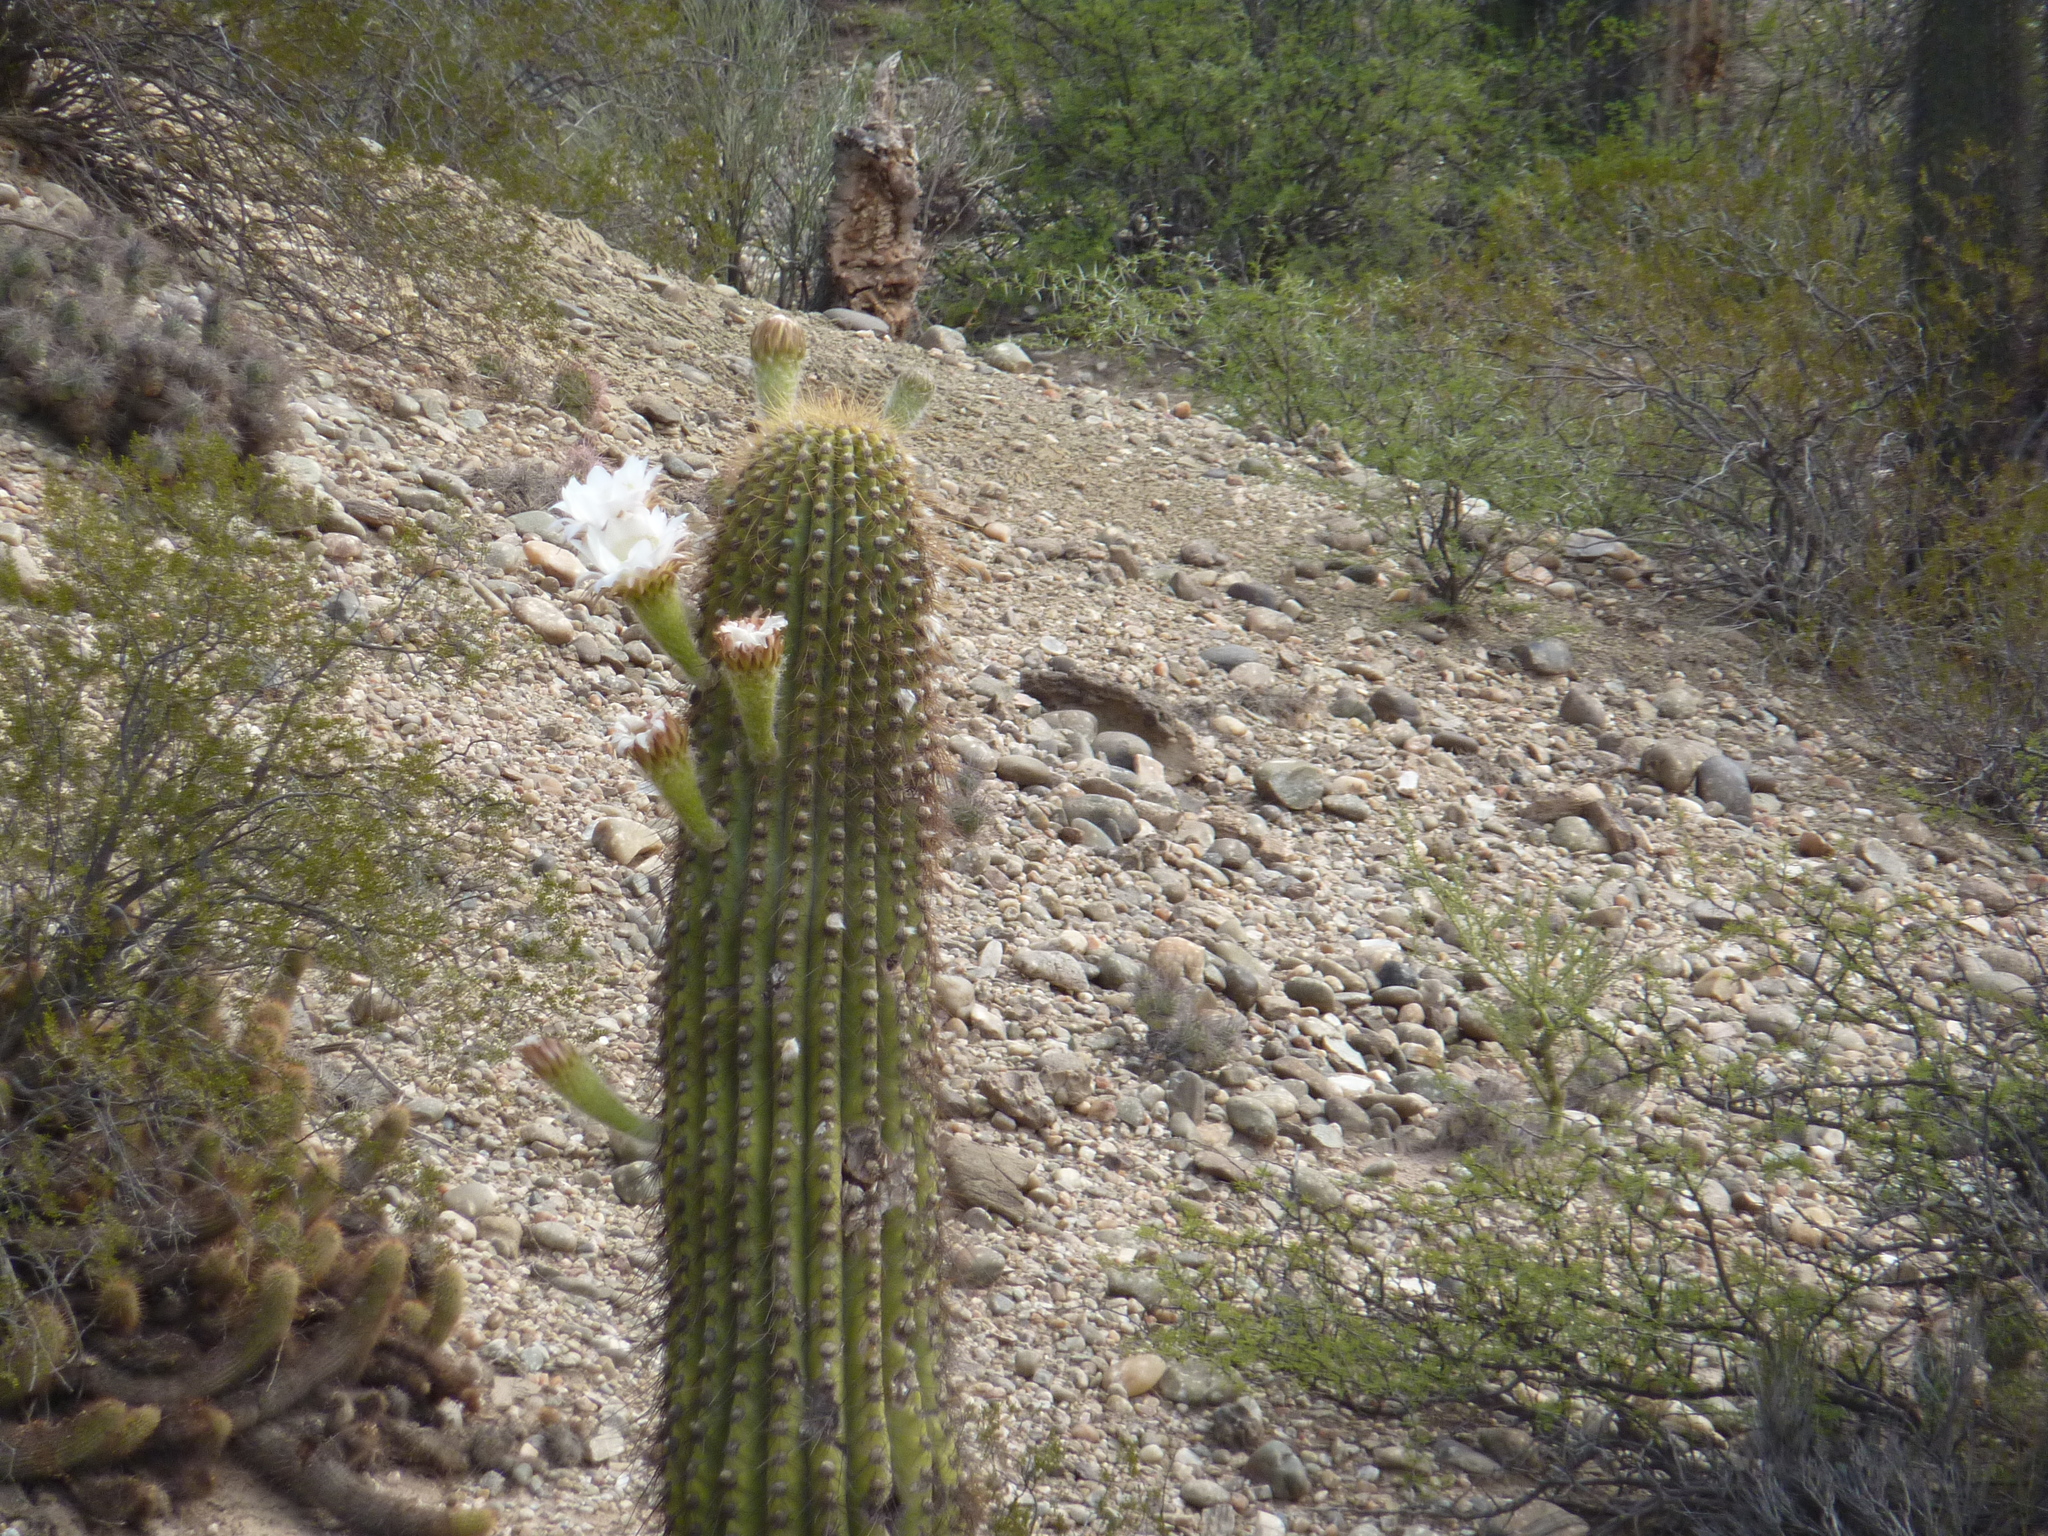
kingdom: Plantae
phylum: Tracheophyta
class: Magnoliopsida
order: Caryophyllales
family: Cactaceae
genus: Leucostele
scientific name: Leucostele terscheckii
